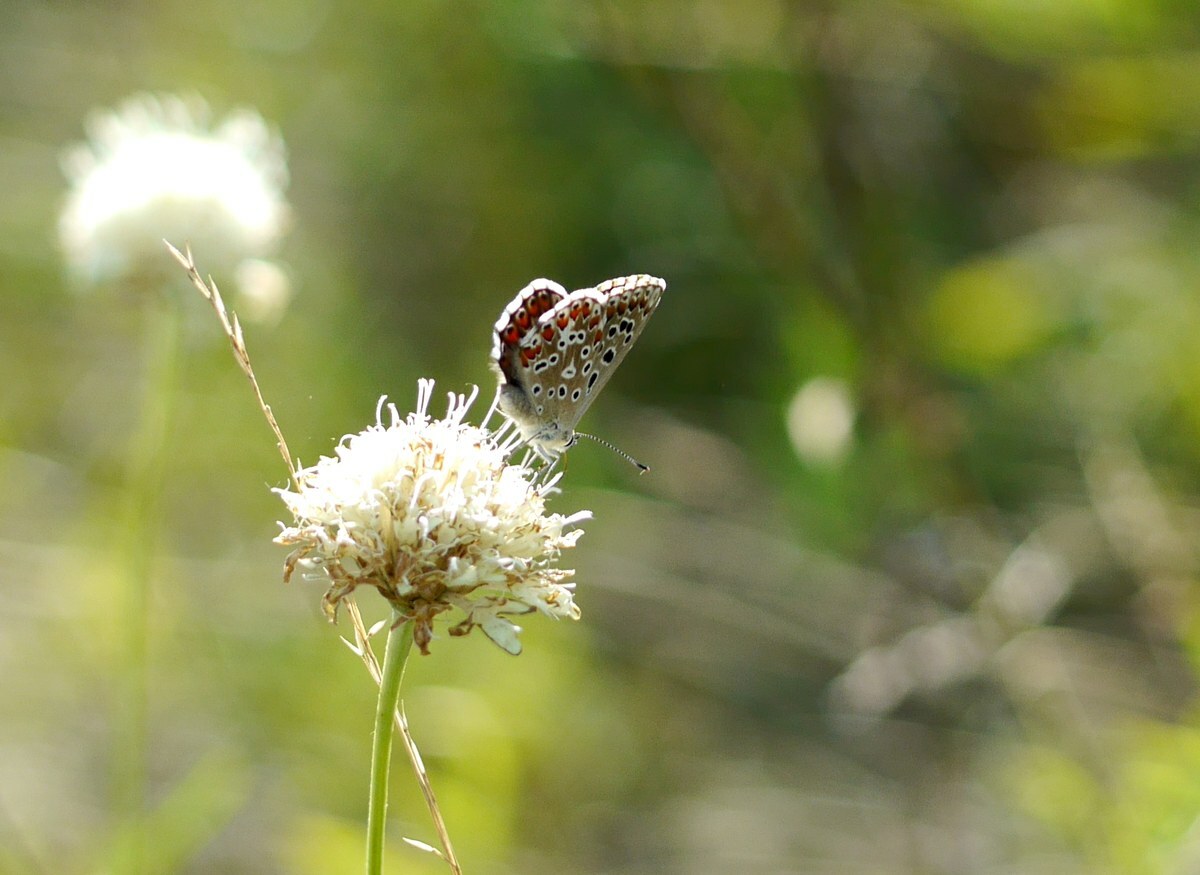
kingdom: Animalia
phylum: Arthropoda
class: Insecta
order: Lepidoptera
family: Lycaenidae
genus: Lysandra
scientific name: Lysandra bellargus
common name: Adonis blue
